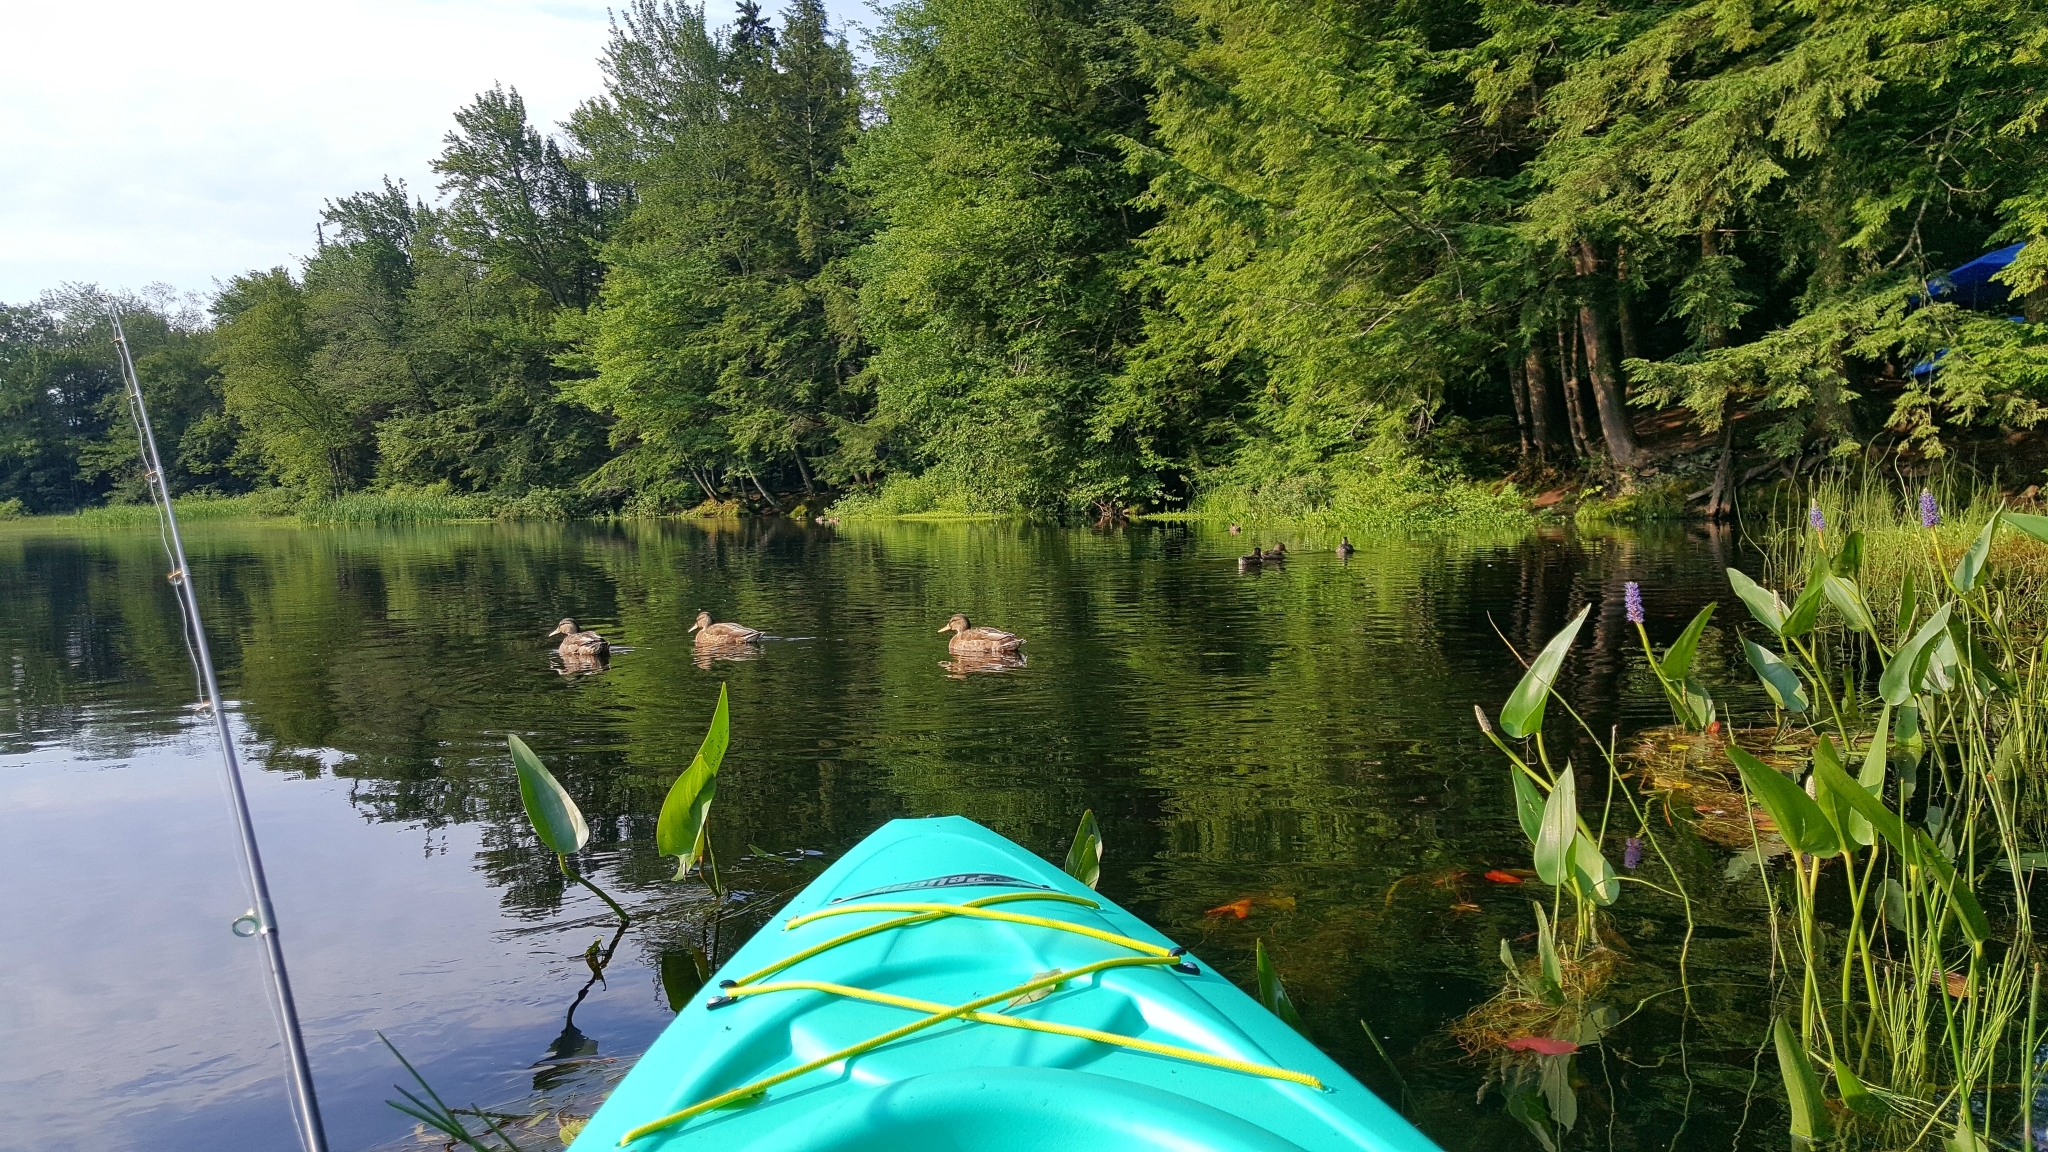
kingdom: Animalia
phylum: Chordata
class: Aves
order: Anseriformes
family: Anatidae
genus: Anas
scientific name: Anas platyrhynchos
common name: Mallard
